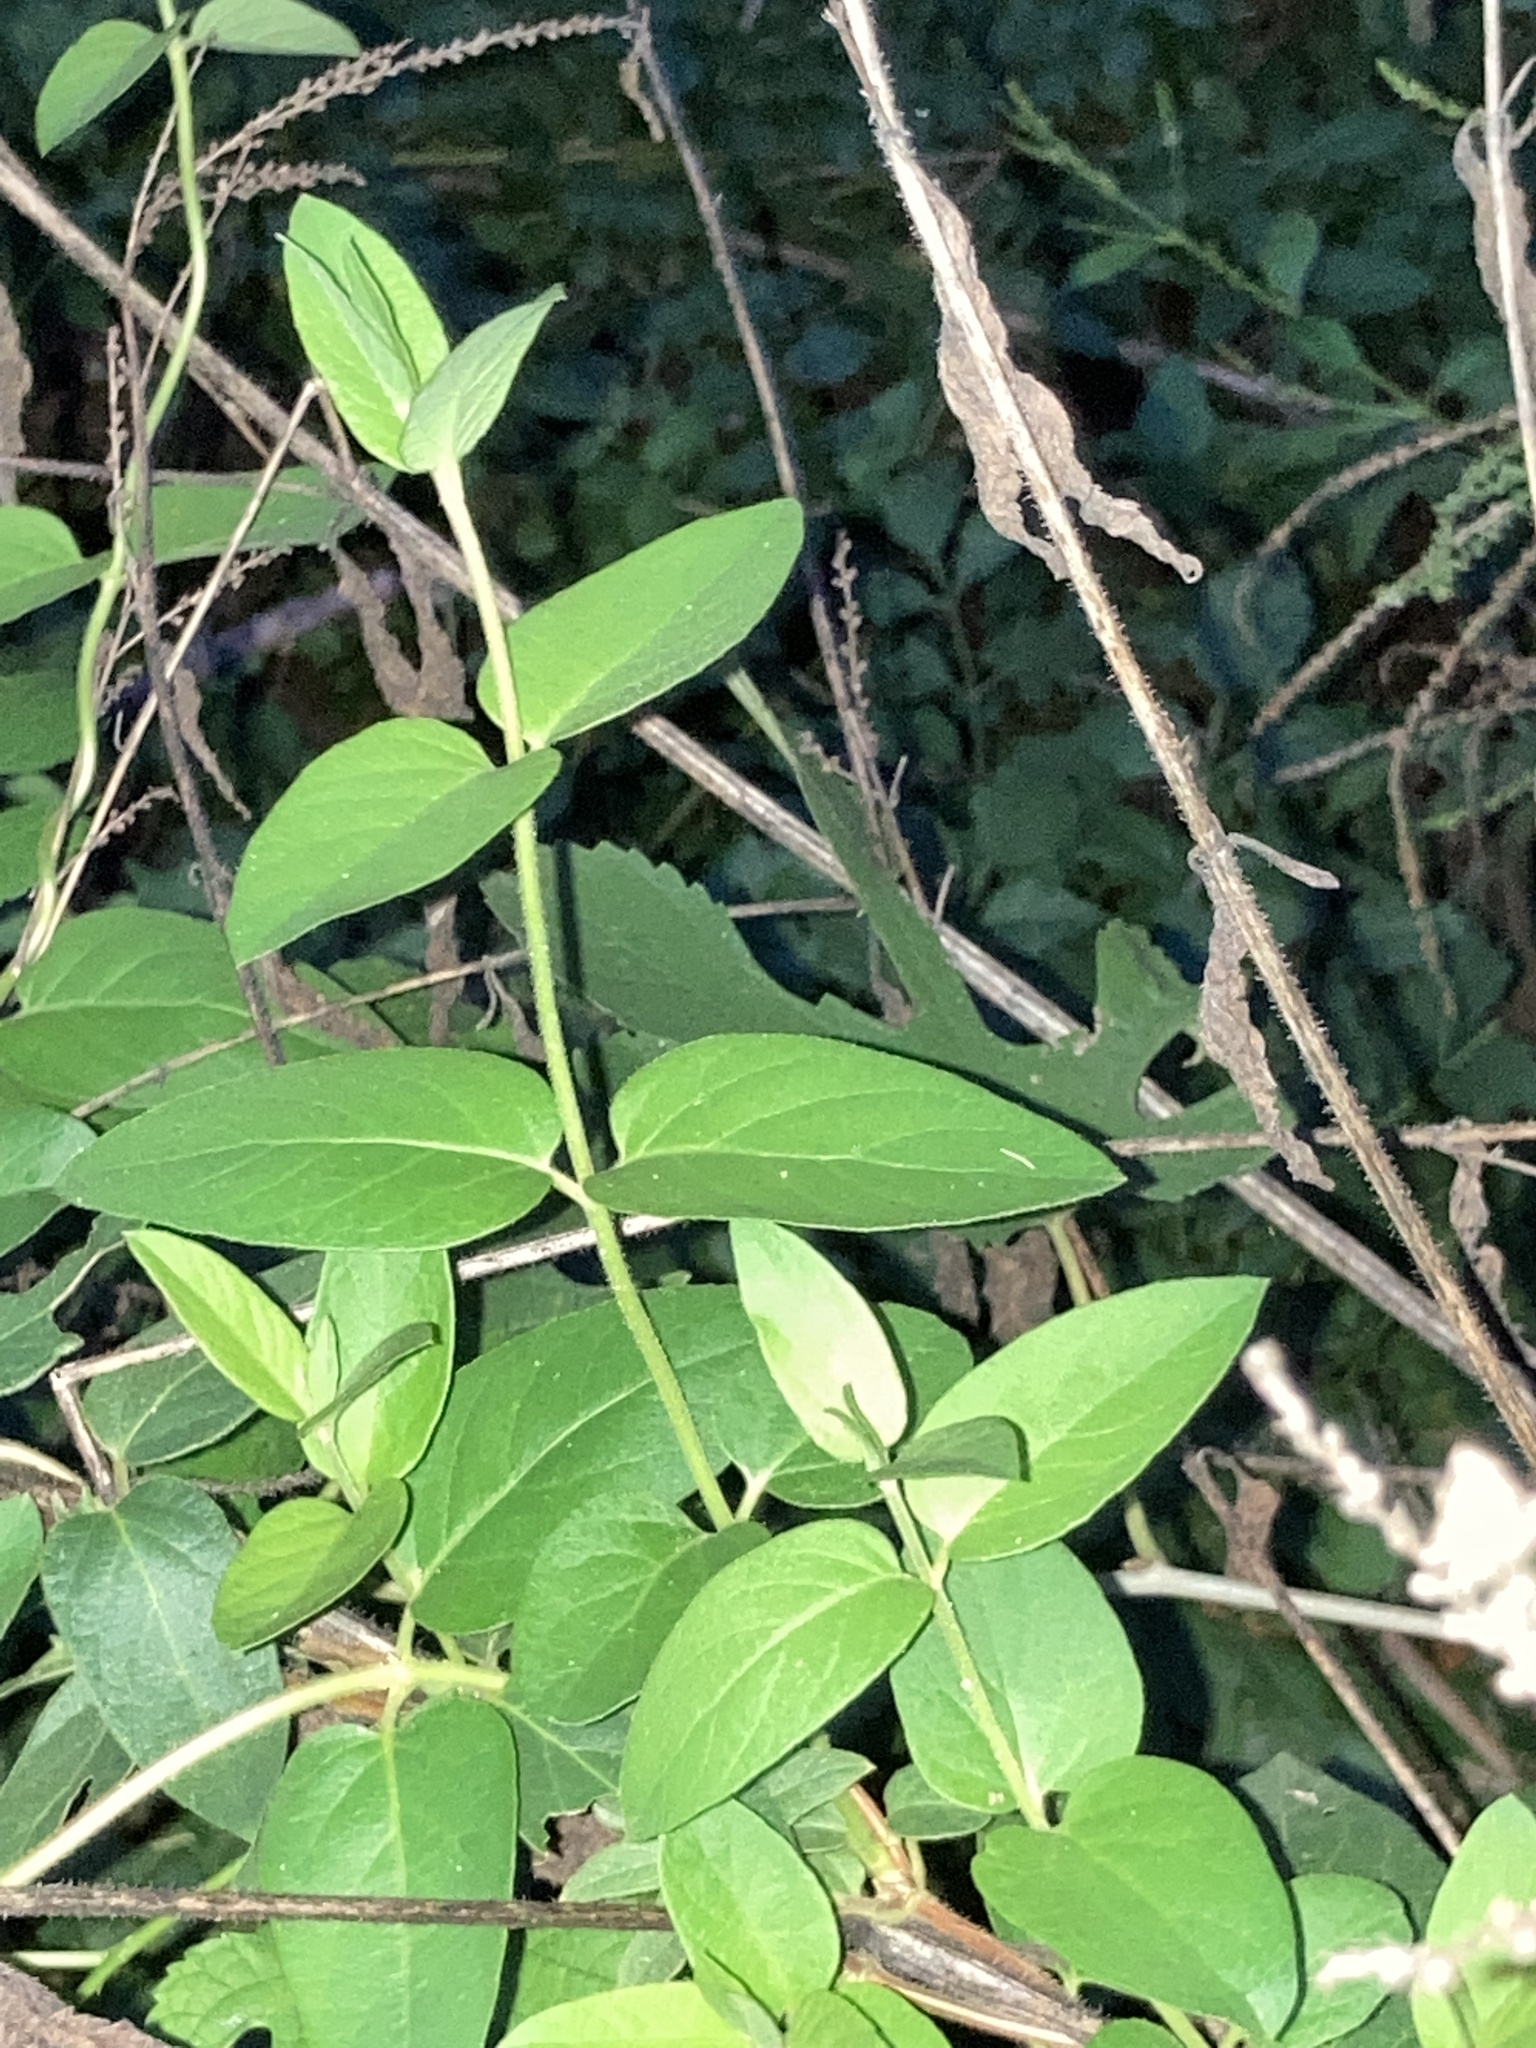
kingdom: Plantae
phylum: Tracheophyta
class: Magnoliopsida
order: Dipsacales
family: Caprifoliaceae
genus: Lonicera
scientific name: Lonicera japonica
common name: Japanese honeysuckle
